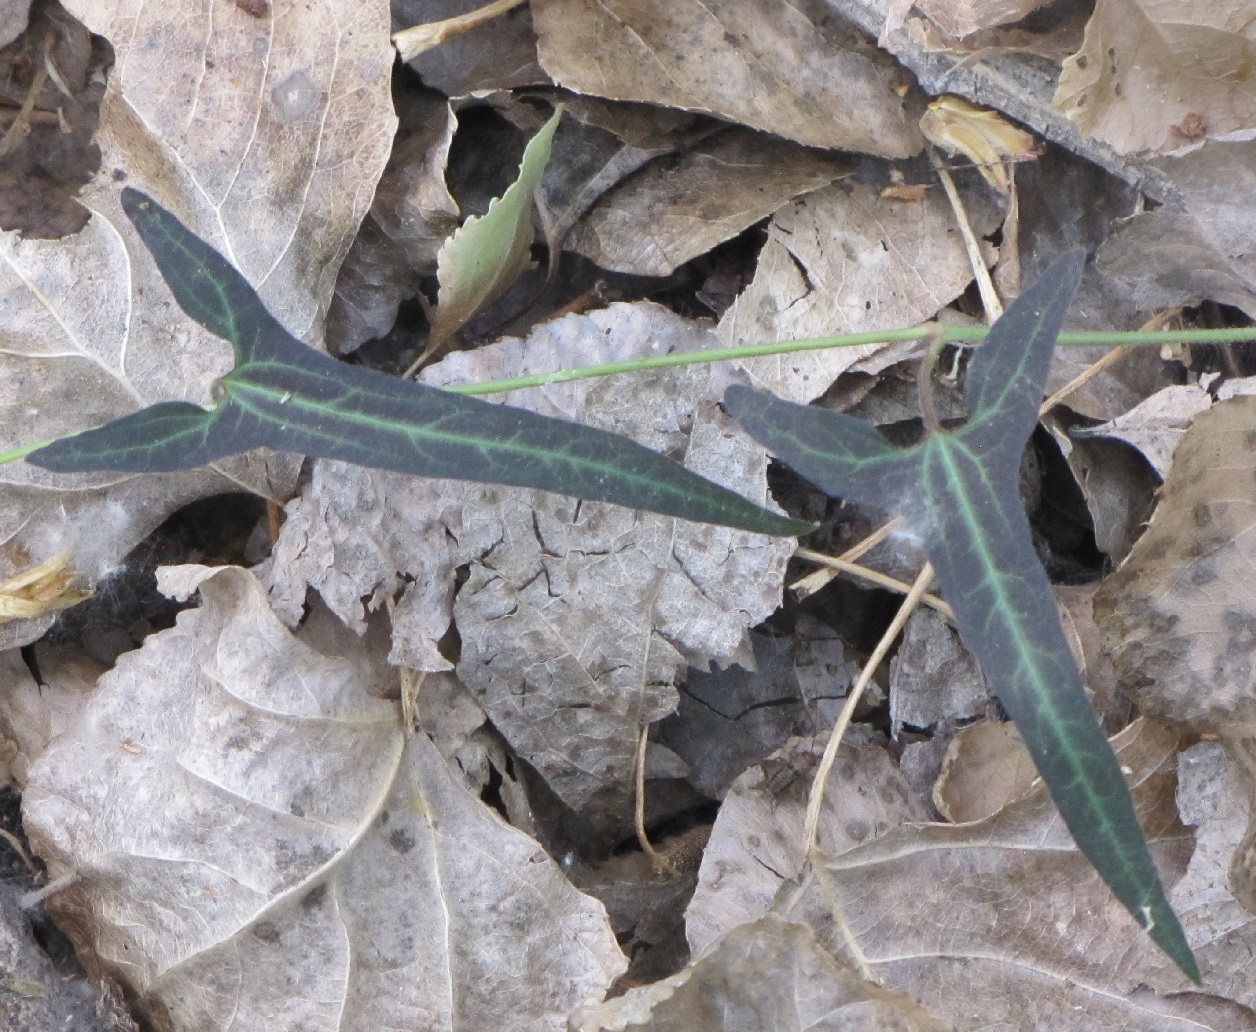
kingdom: Plantae
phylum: Tracheophyta
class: Magnoliopsida
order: Piperales
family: Aristolochiaceae
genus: Aristolochia
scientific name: Aristolochia watsonii
